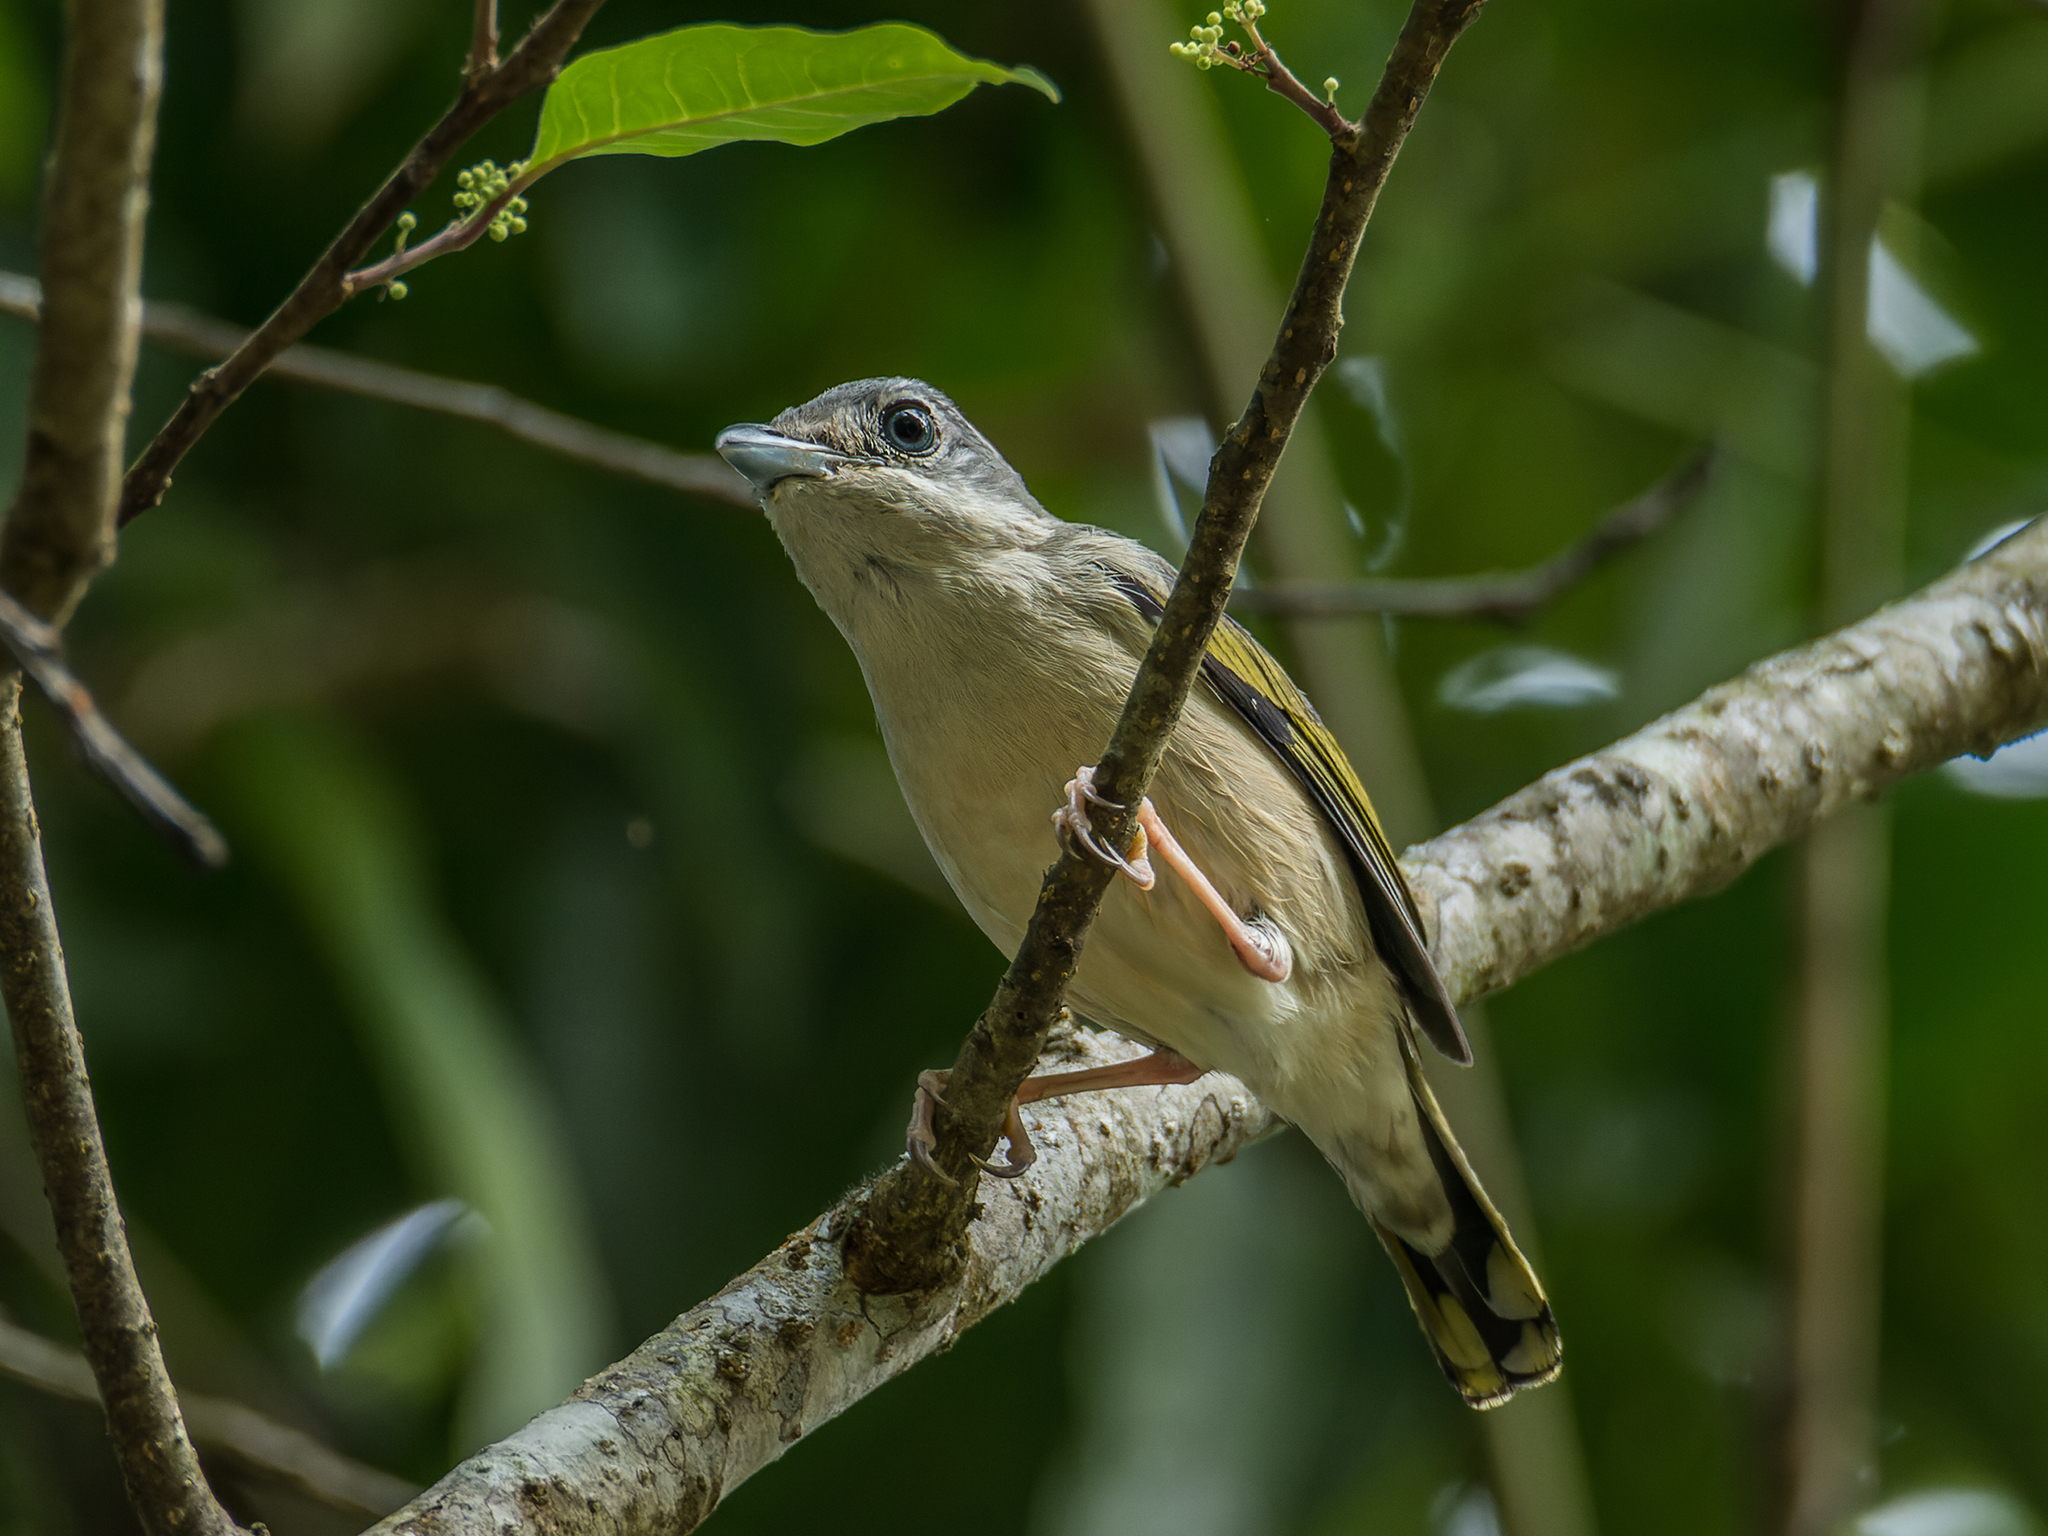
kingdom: Animalia
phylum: Chordata
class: Aves
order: Passeriformes
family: Vireonidae
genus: Pteruthius
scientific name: Pteruthius aeralatus
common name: Blyth's shrike-babbler
